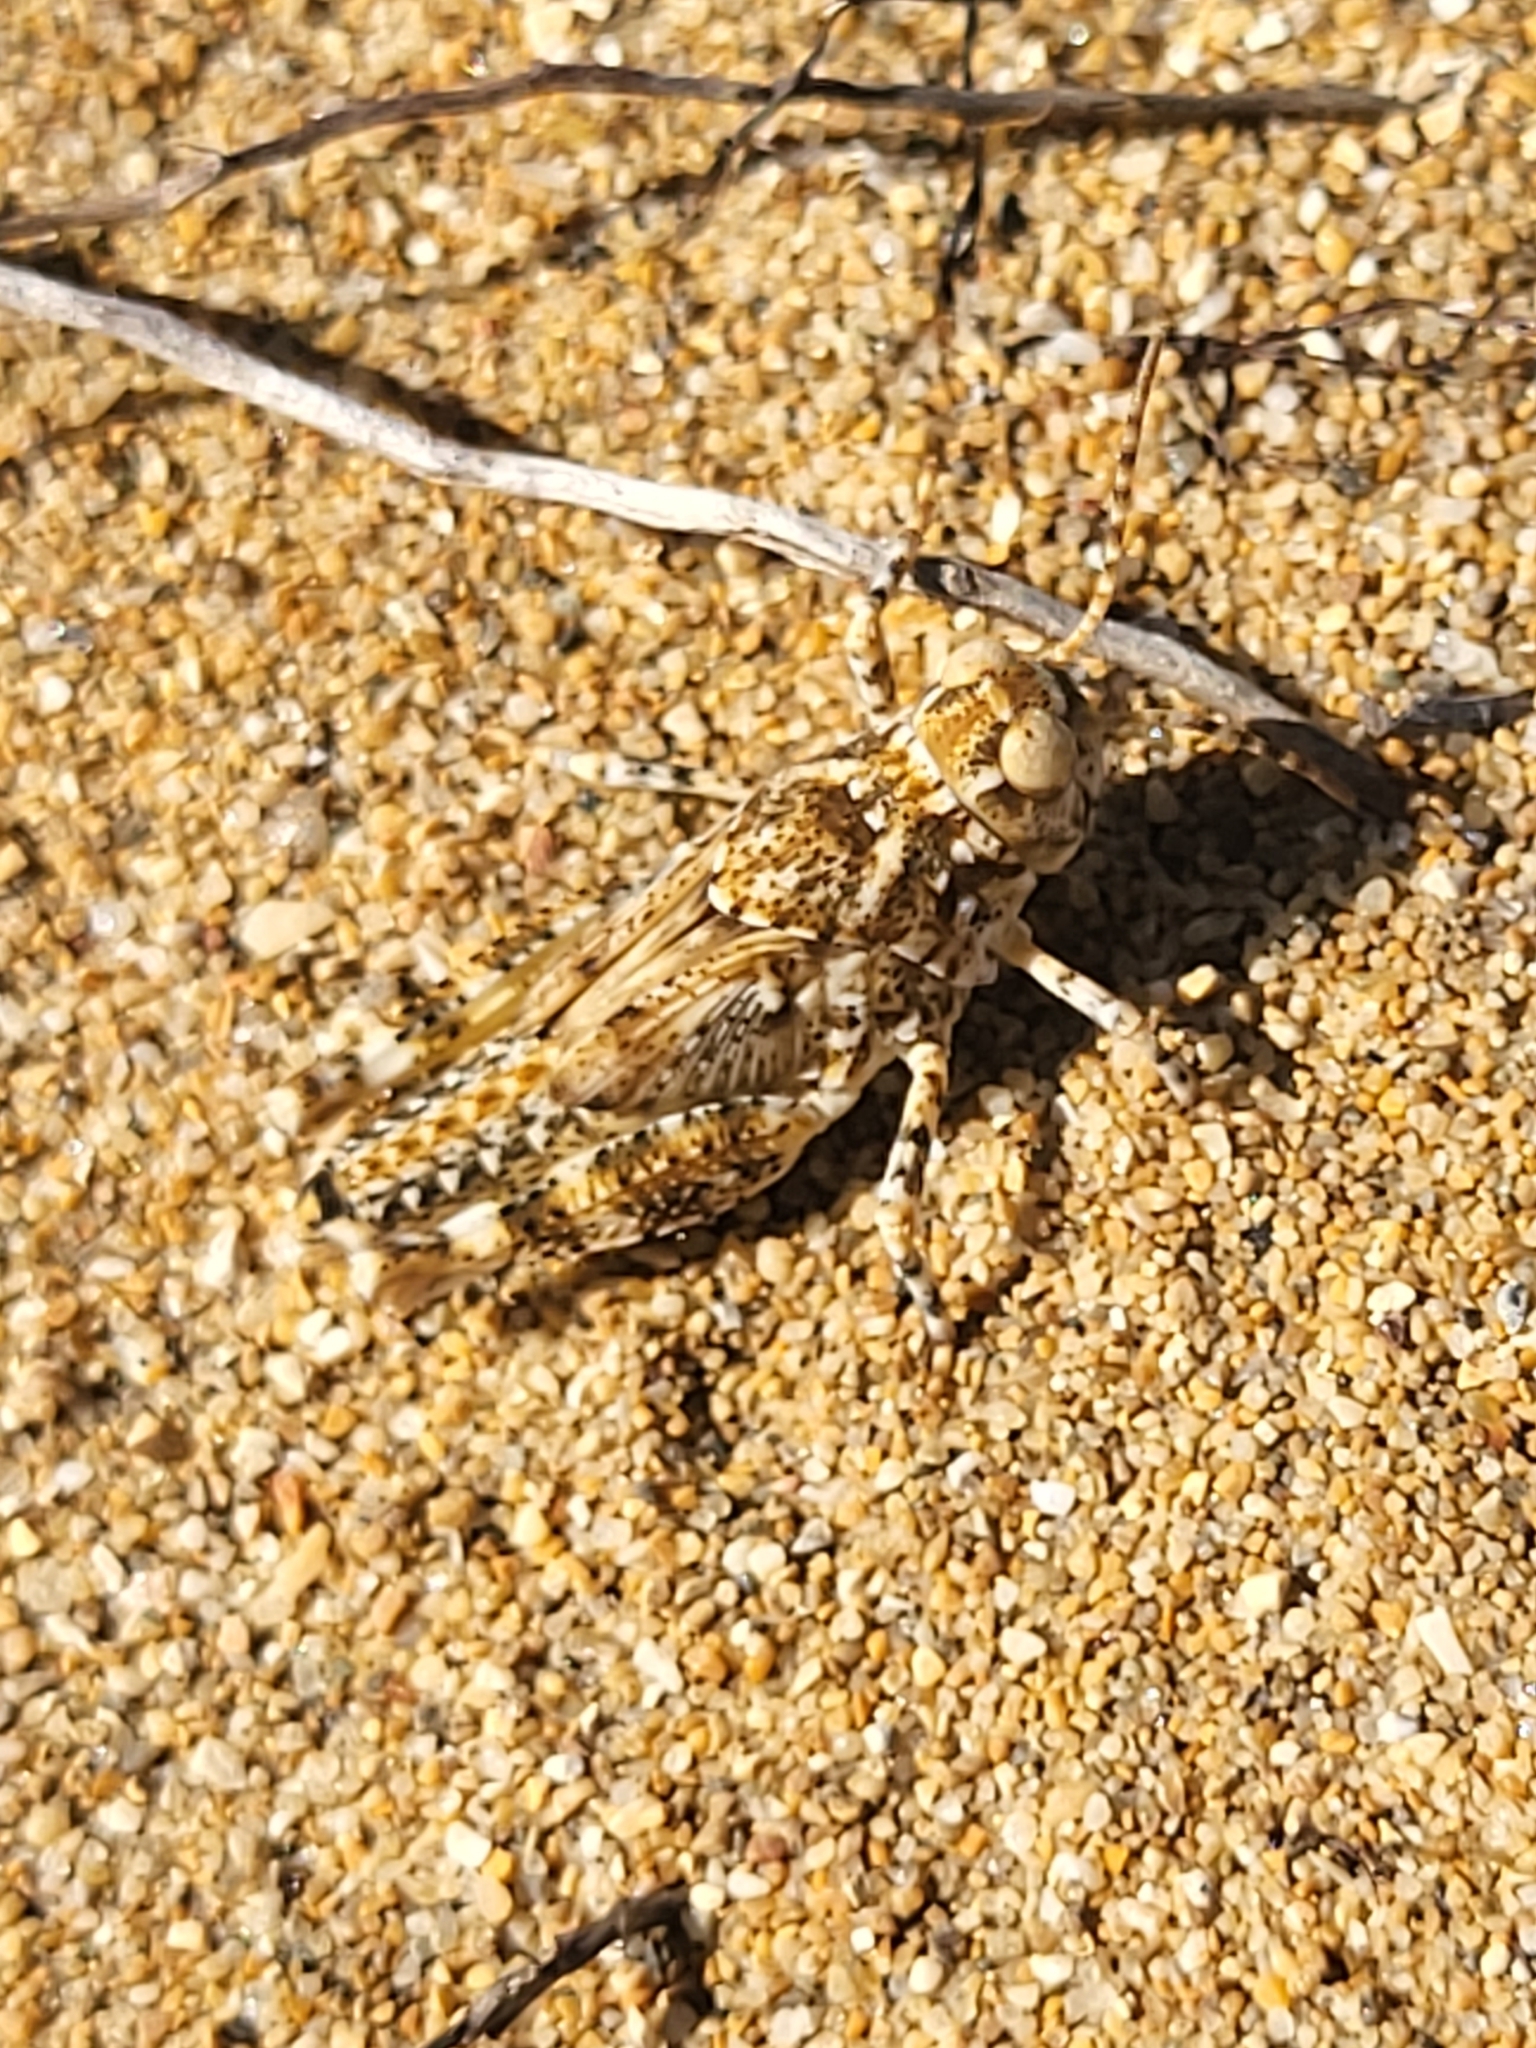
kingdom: Animalia
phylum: Arthropoda
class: Insecta
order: Orthoptera
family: Acrididae
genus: Sphingonotus
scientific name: Sphingonotus
